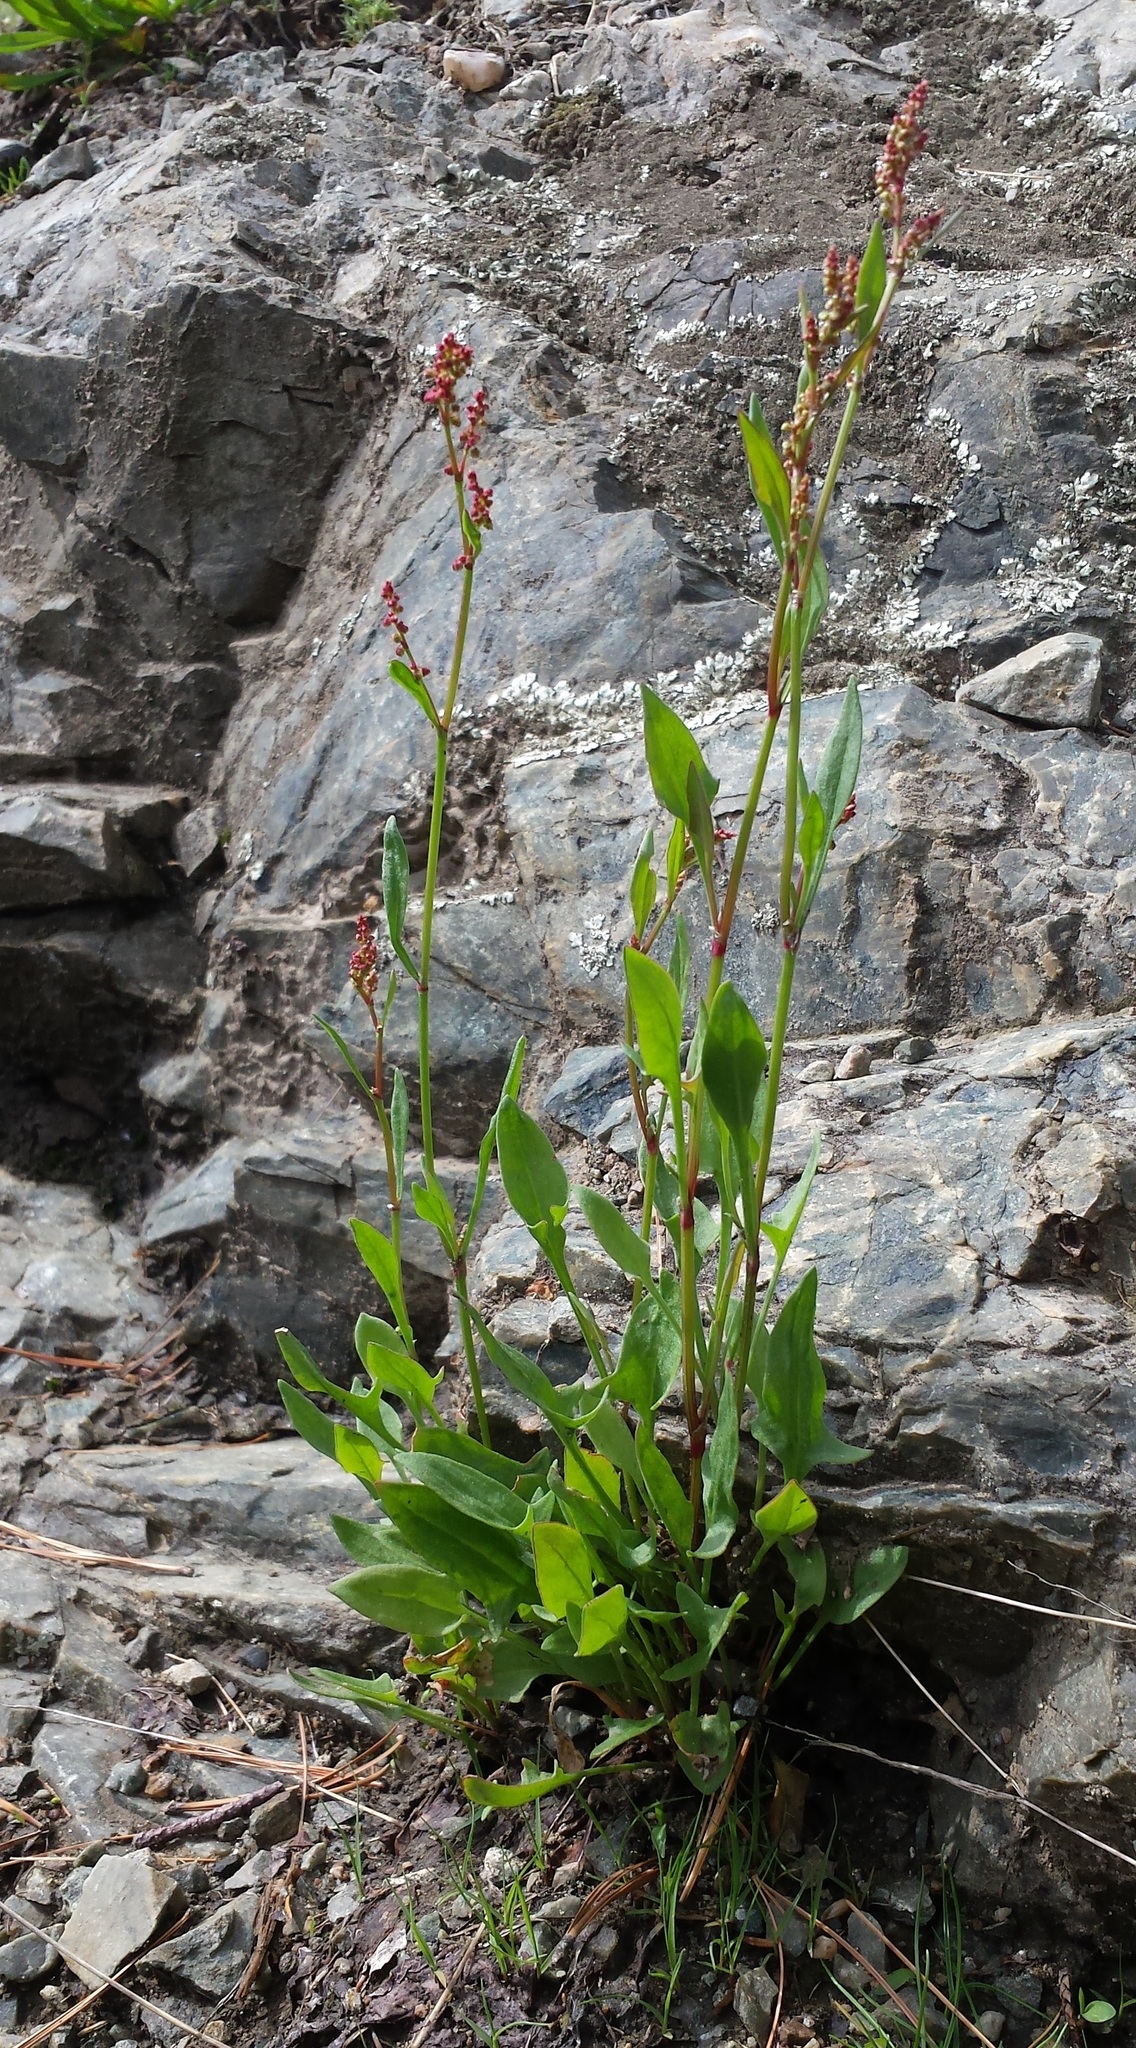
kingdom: Plantae
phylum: Tracheophyta
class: Magnoliopsida
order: Caryophyllales
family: Polygonaceae
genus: Rumex
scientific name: Rumex acetosella
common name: Common sheep sorrel
